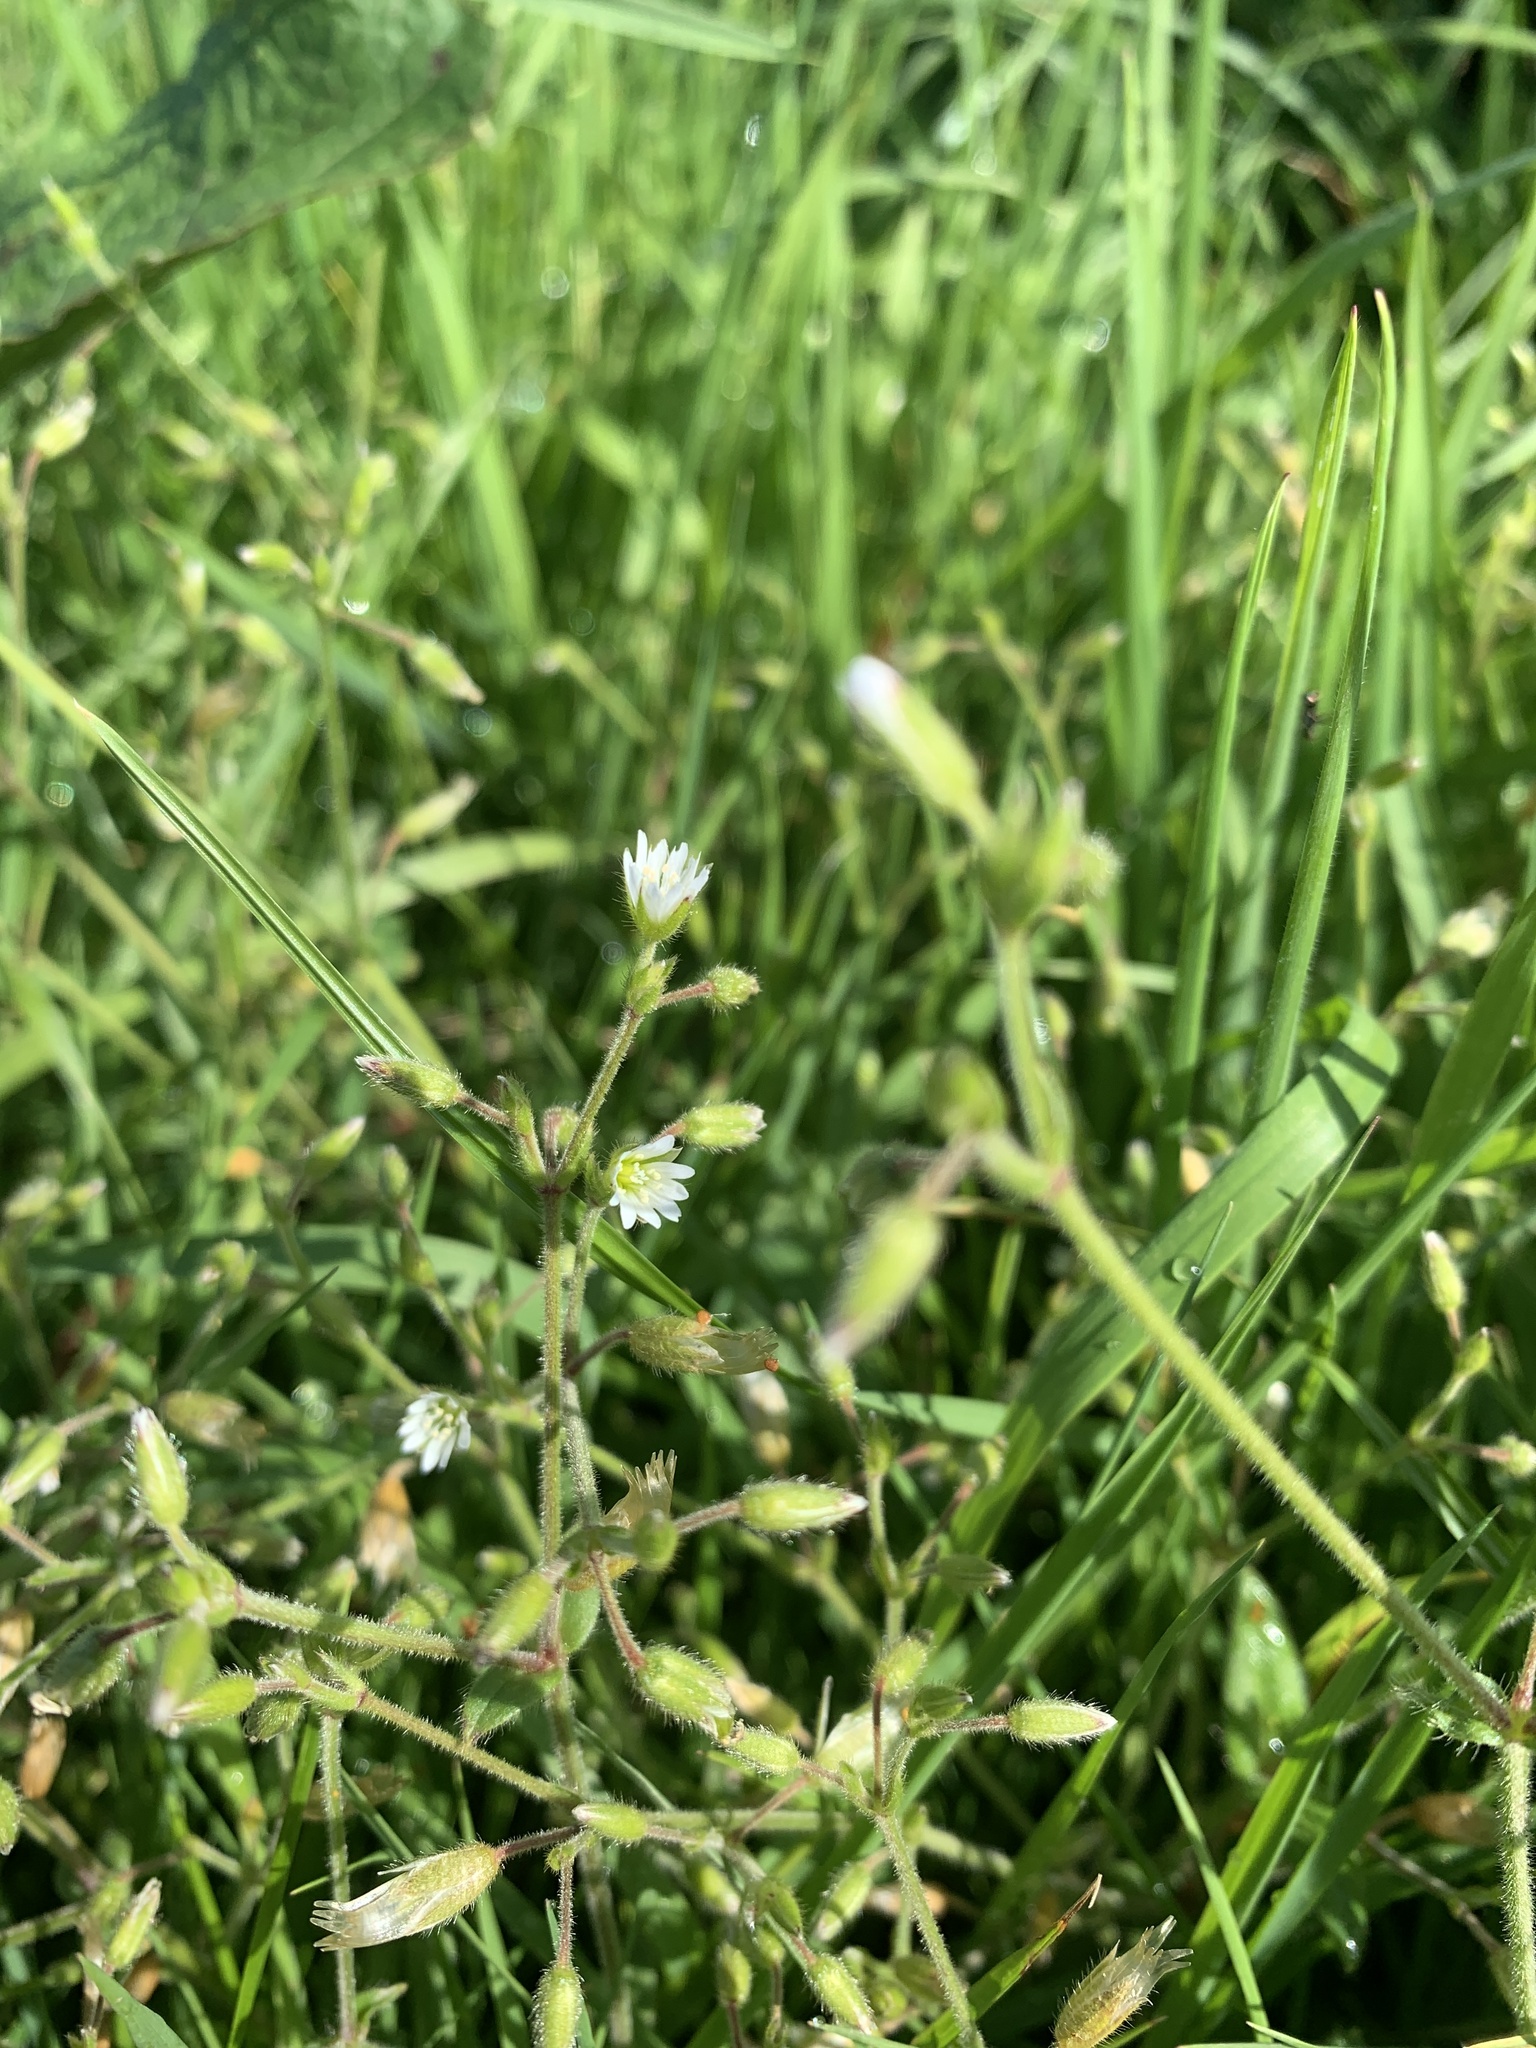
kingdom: Plantae
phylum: Tracheophyta
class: Magnoliopsida
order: Caryophyllales
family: Caryophyllaceae
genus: Cerastium
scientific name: Cerastium fontanum
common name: Common mouse-ear
